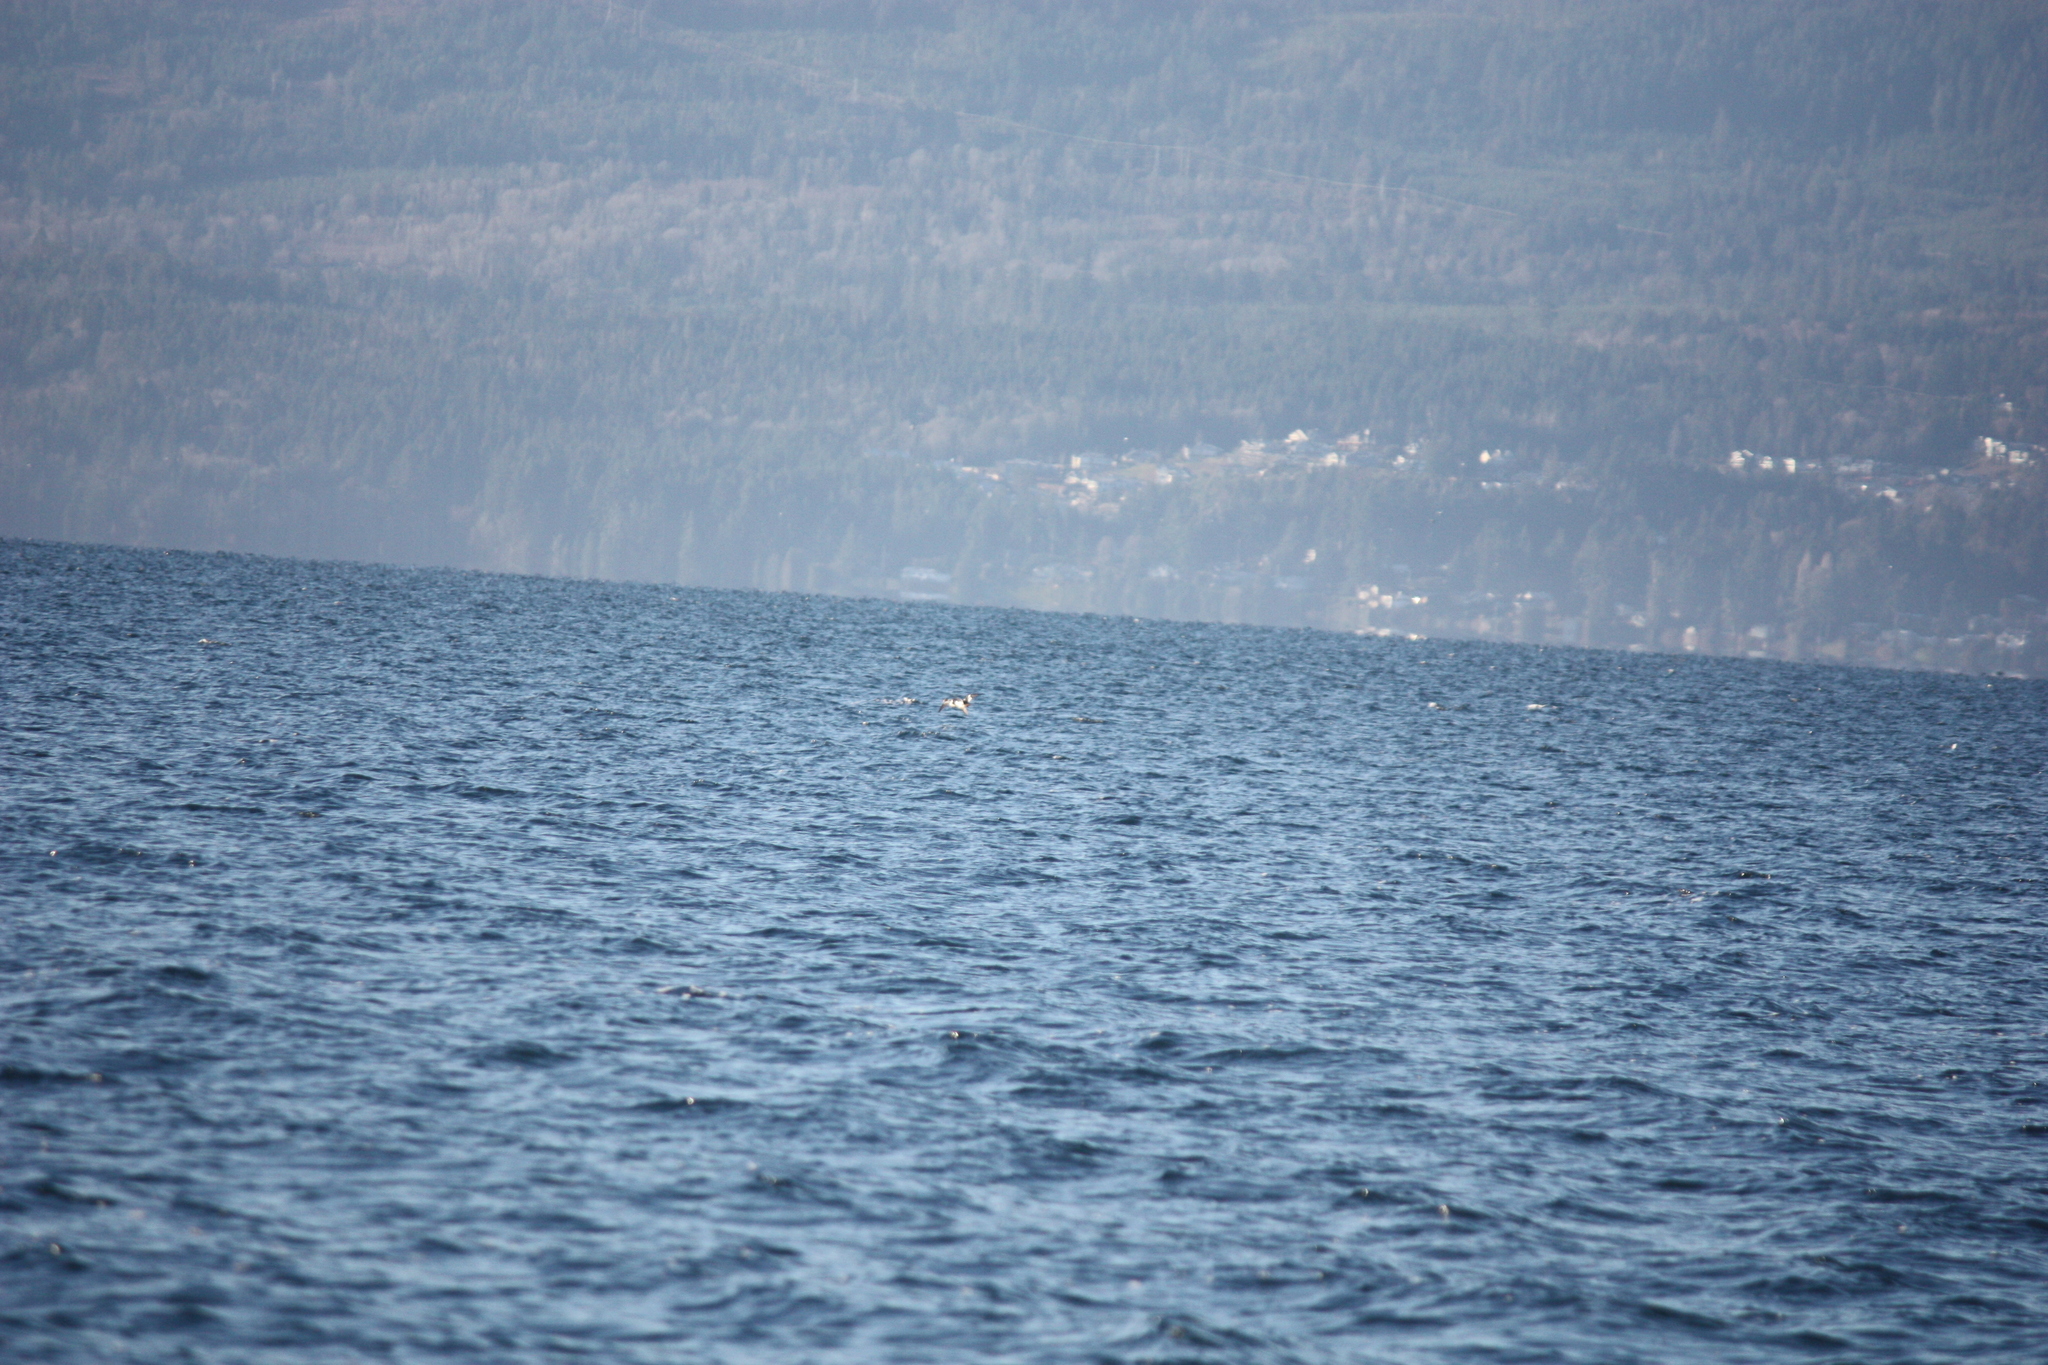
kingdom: Animalia
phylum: Chordata
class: Aves
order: Podicipediformes
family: Podicipedidae
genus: Podiceps
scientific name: Podiceps grisegena
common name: Red-necked grebe
